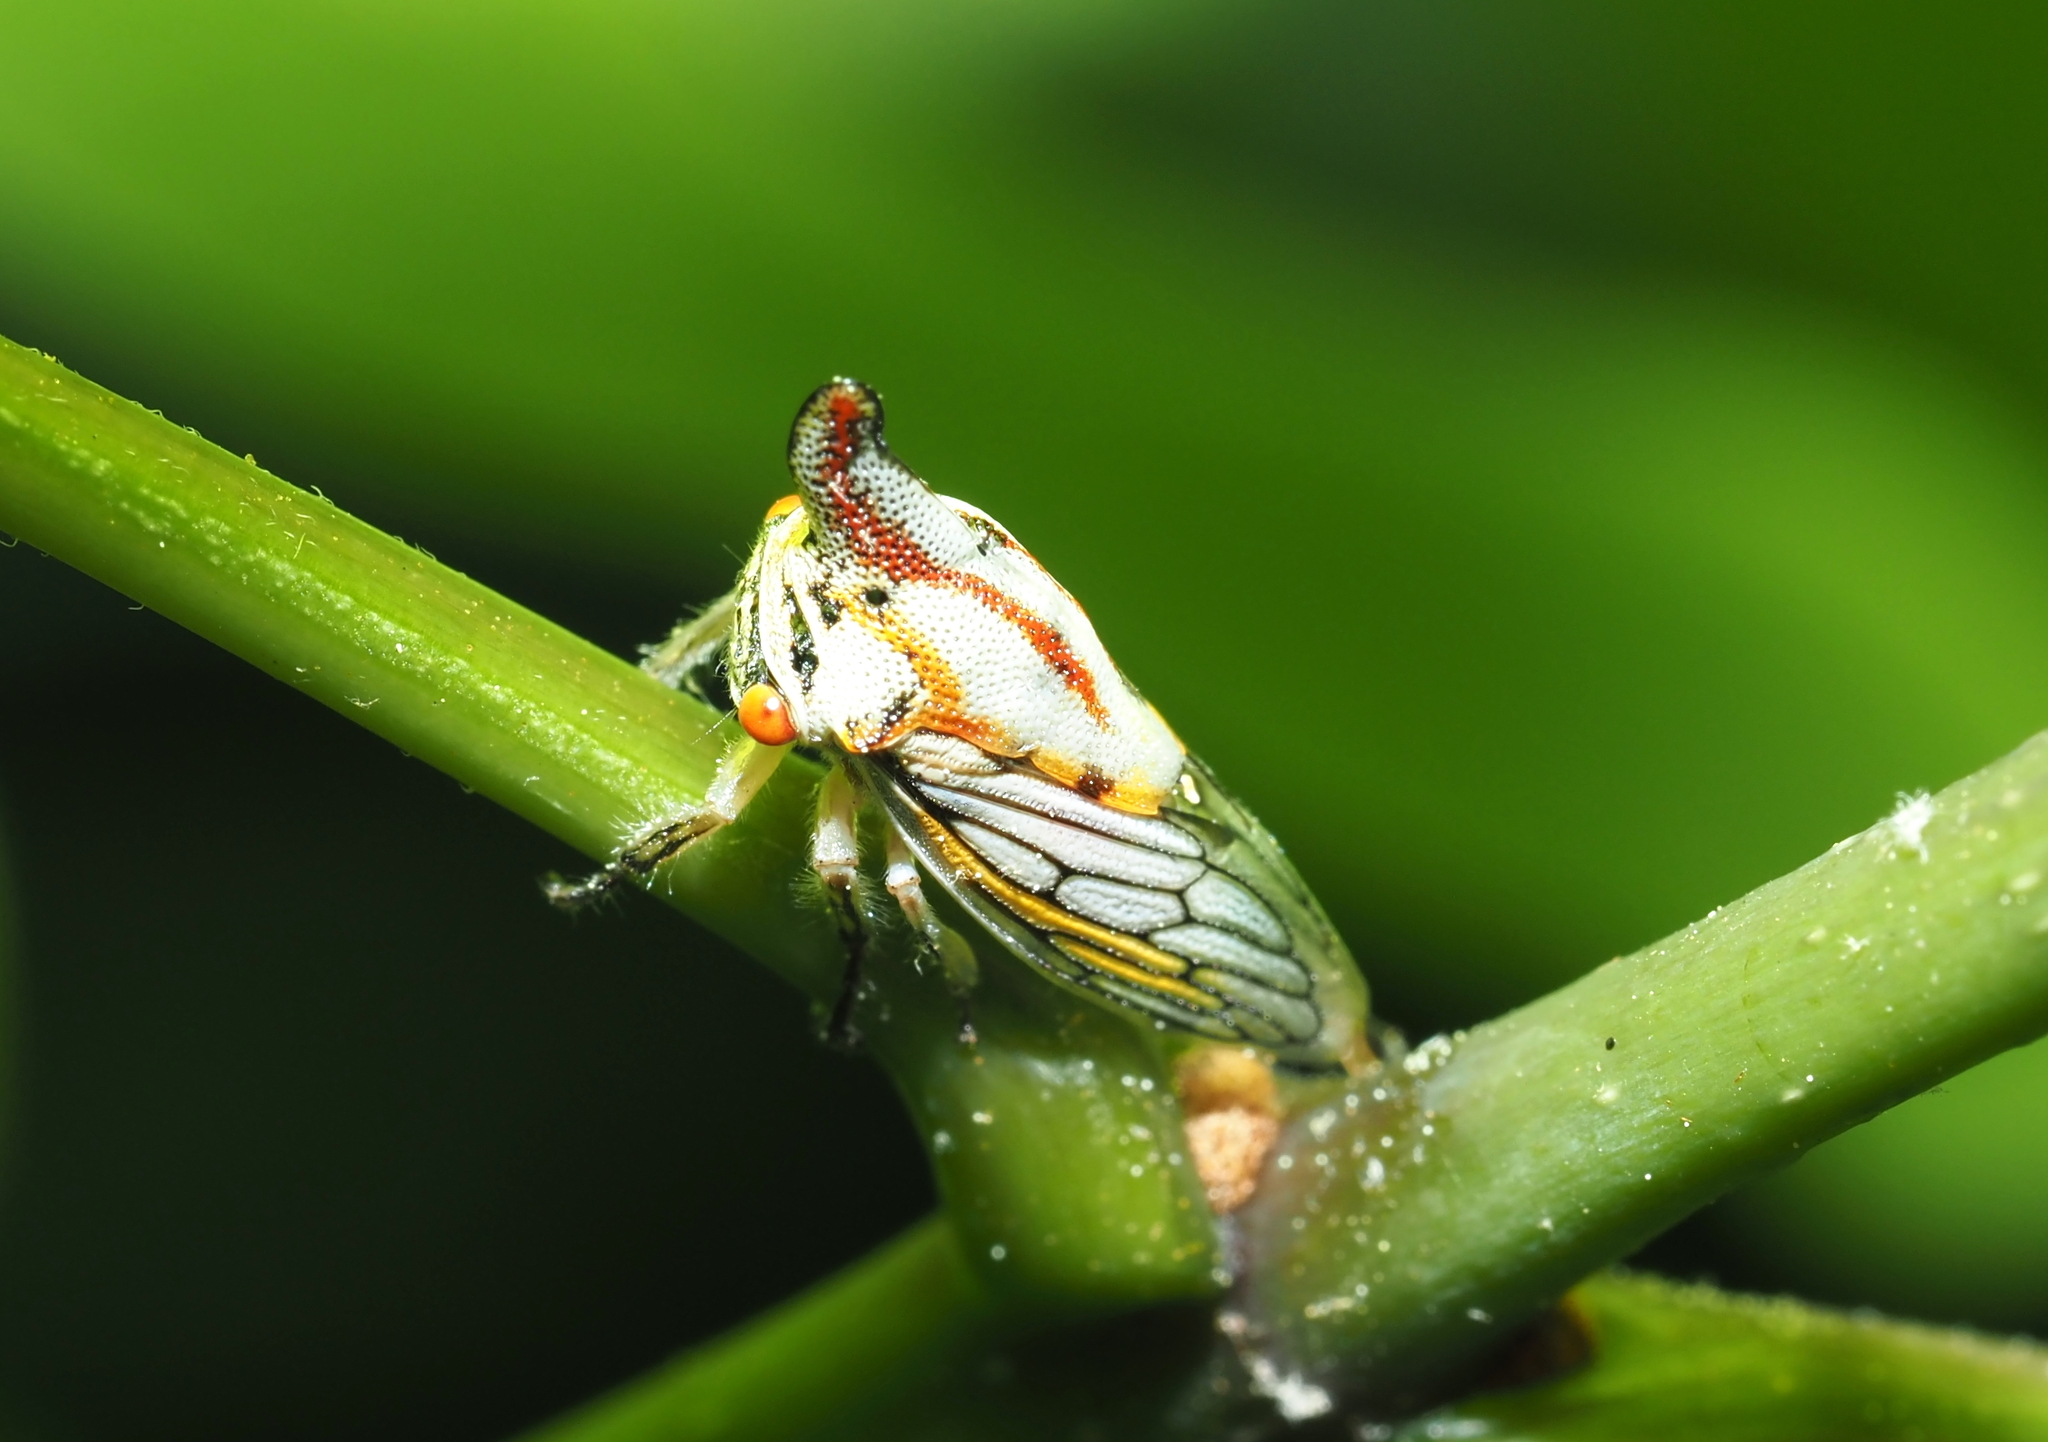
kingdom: Animalia
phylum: Arthropoda
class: Insecta
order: Hemiptera
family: Membracidae
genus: Platycotis
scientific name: Platycotis vittatus
